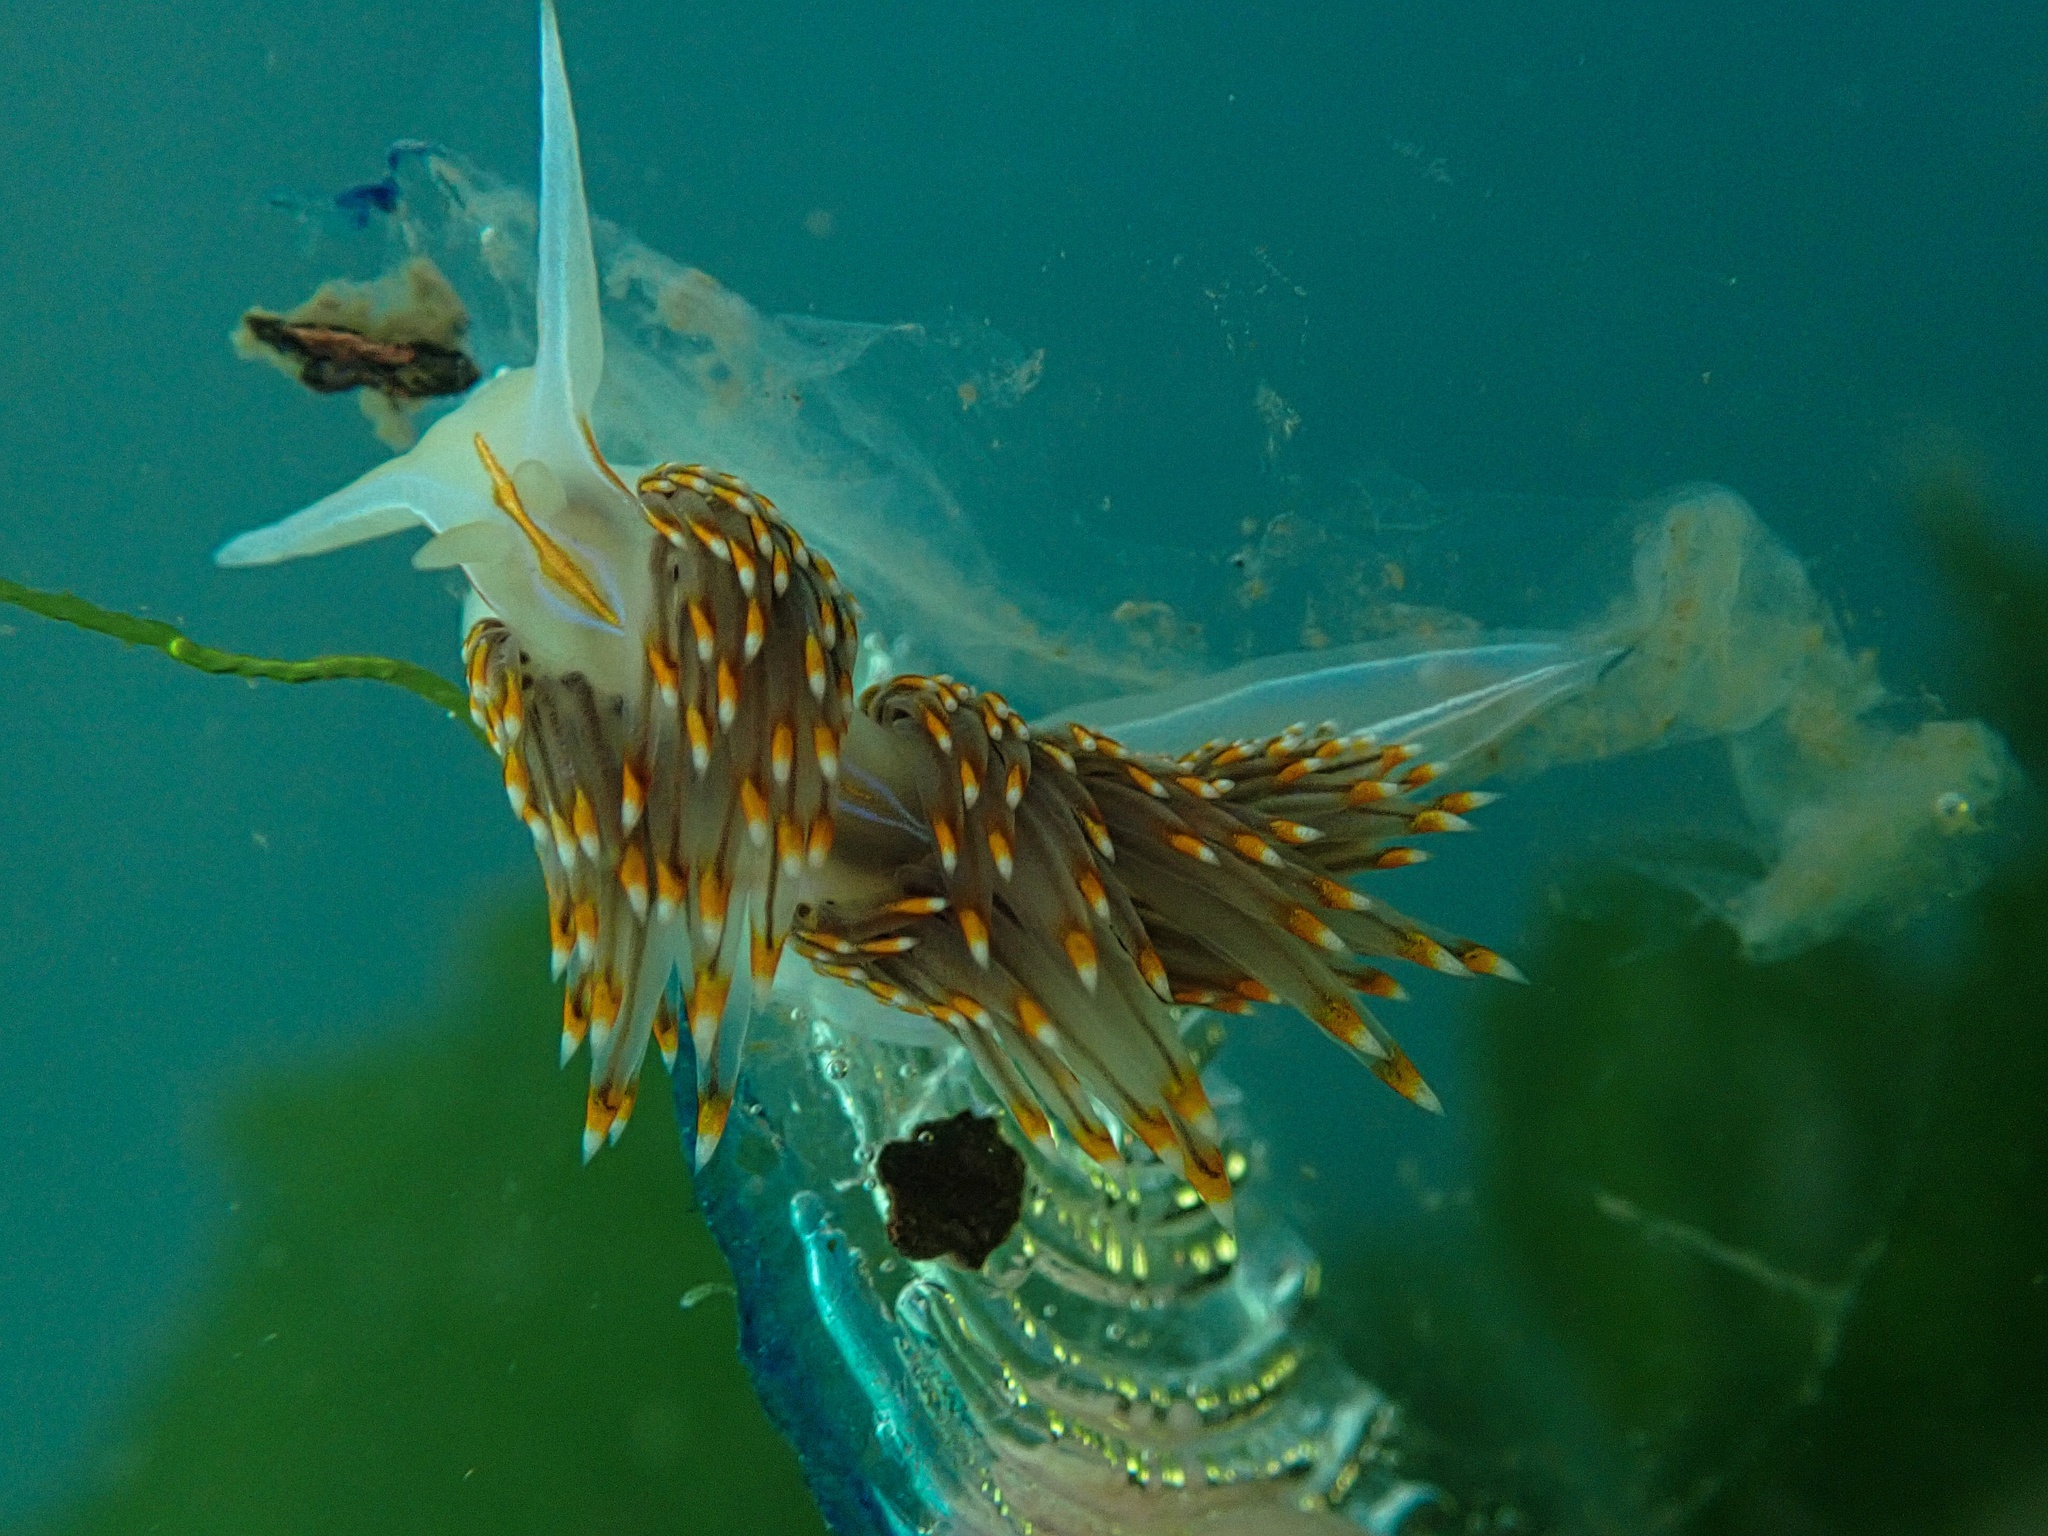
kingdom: Animalia
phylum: Mollusca
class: Gastropoda
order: Nudibranchia
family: Myrrhinidae
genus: Hermissenda
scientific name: Hermissenda opalescens
